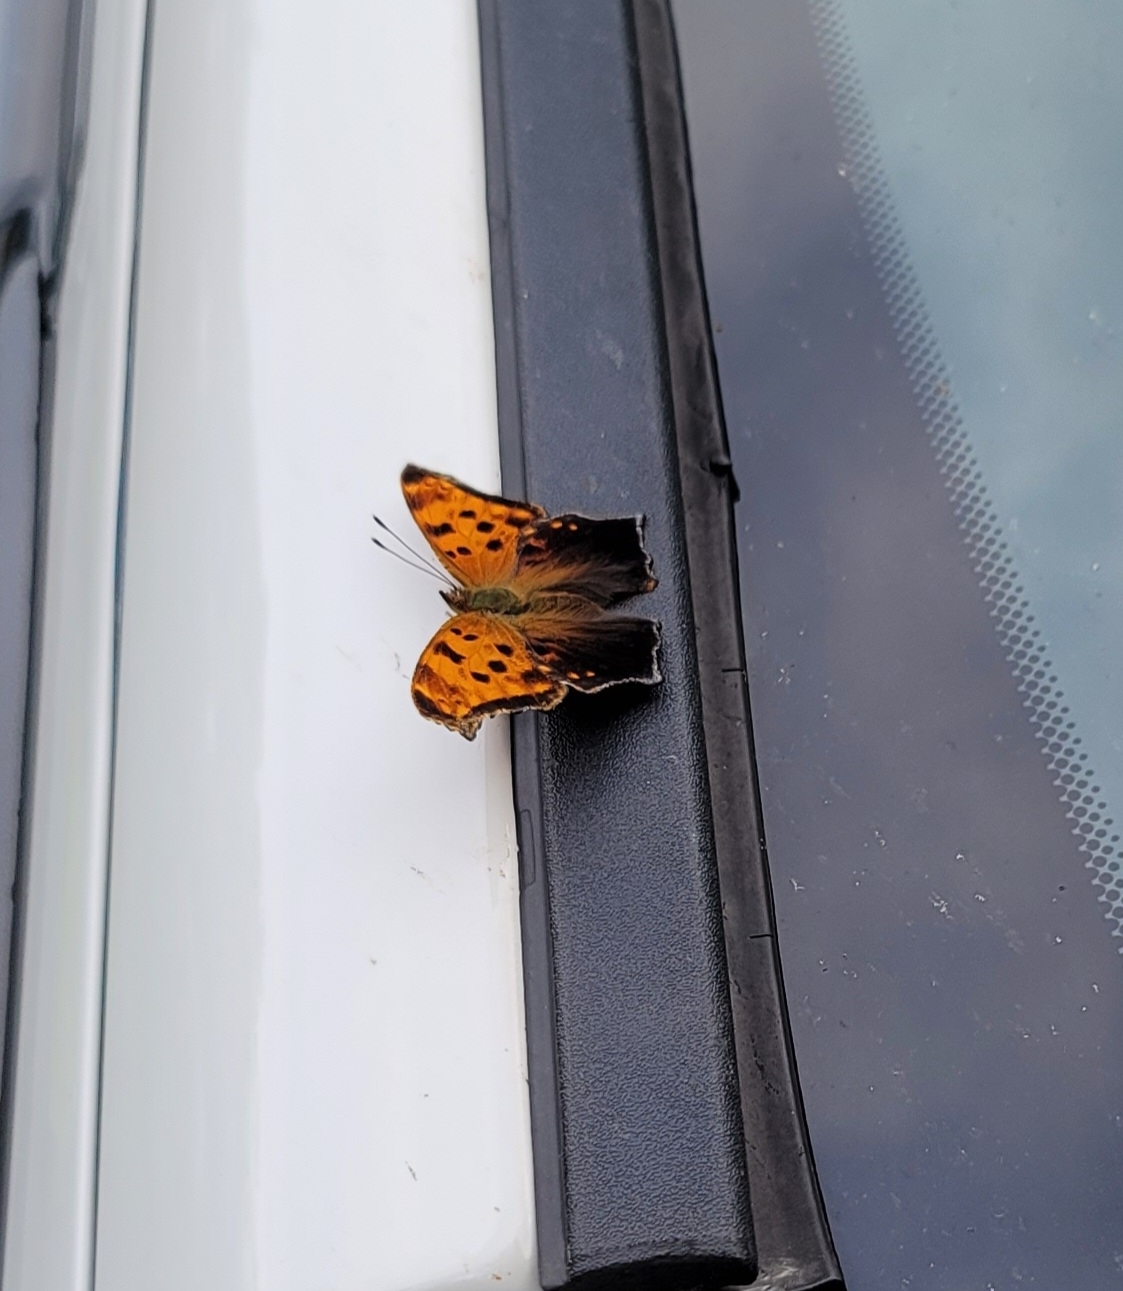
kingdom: Animalia
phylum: Arthropoda
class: Insecta
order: Lepidoptera
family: Nymphalidae
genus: Polygonia
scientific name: Polygonia comma
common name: Eastern comma
